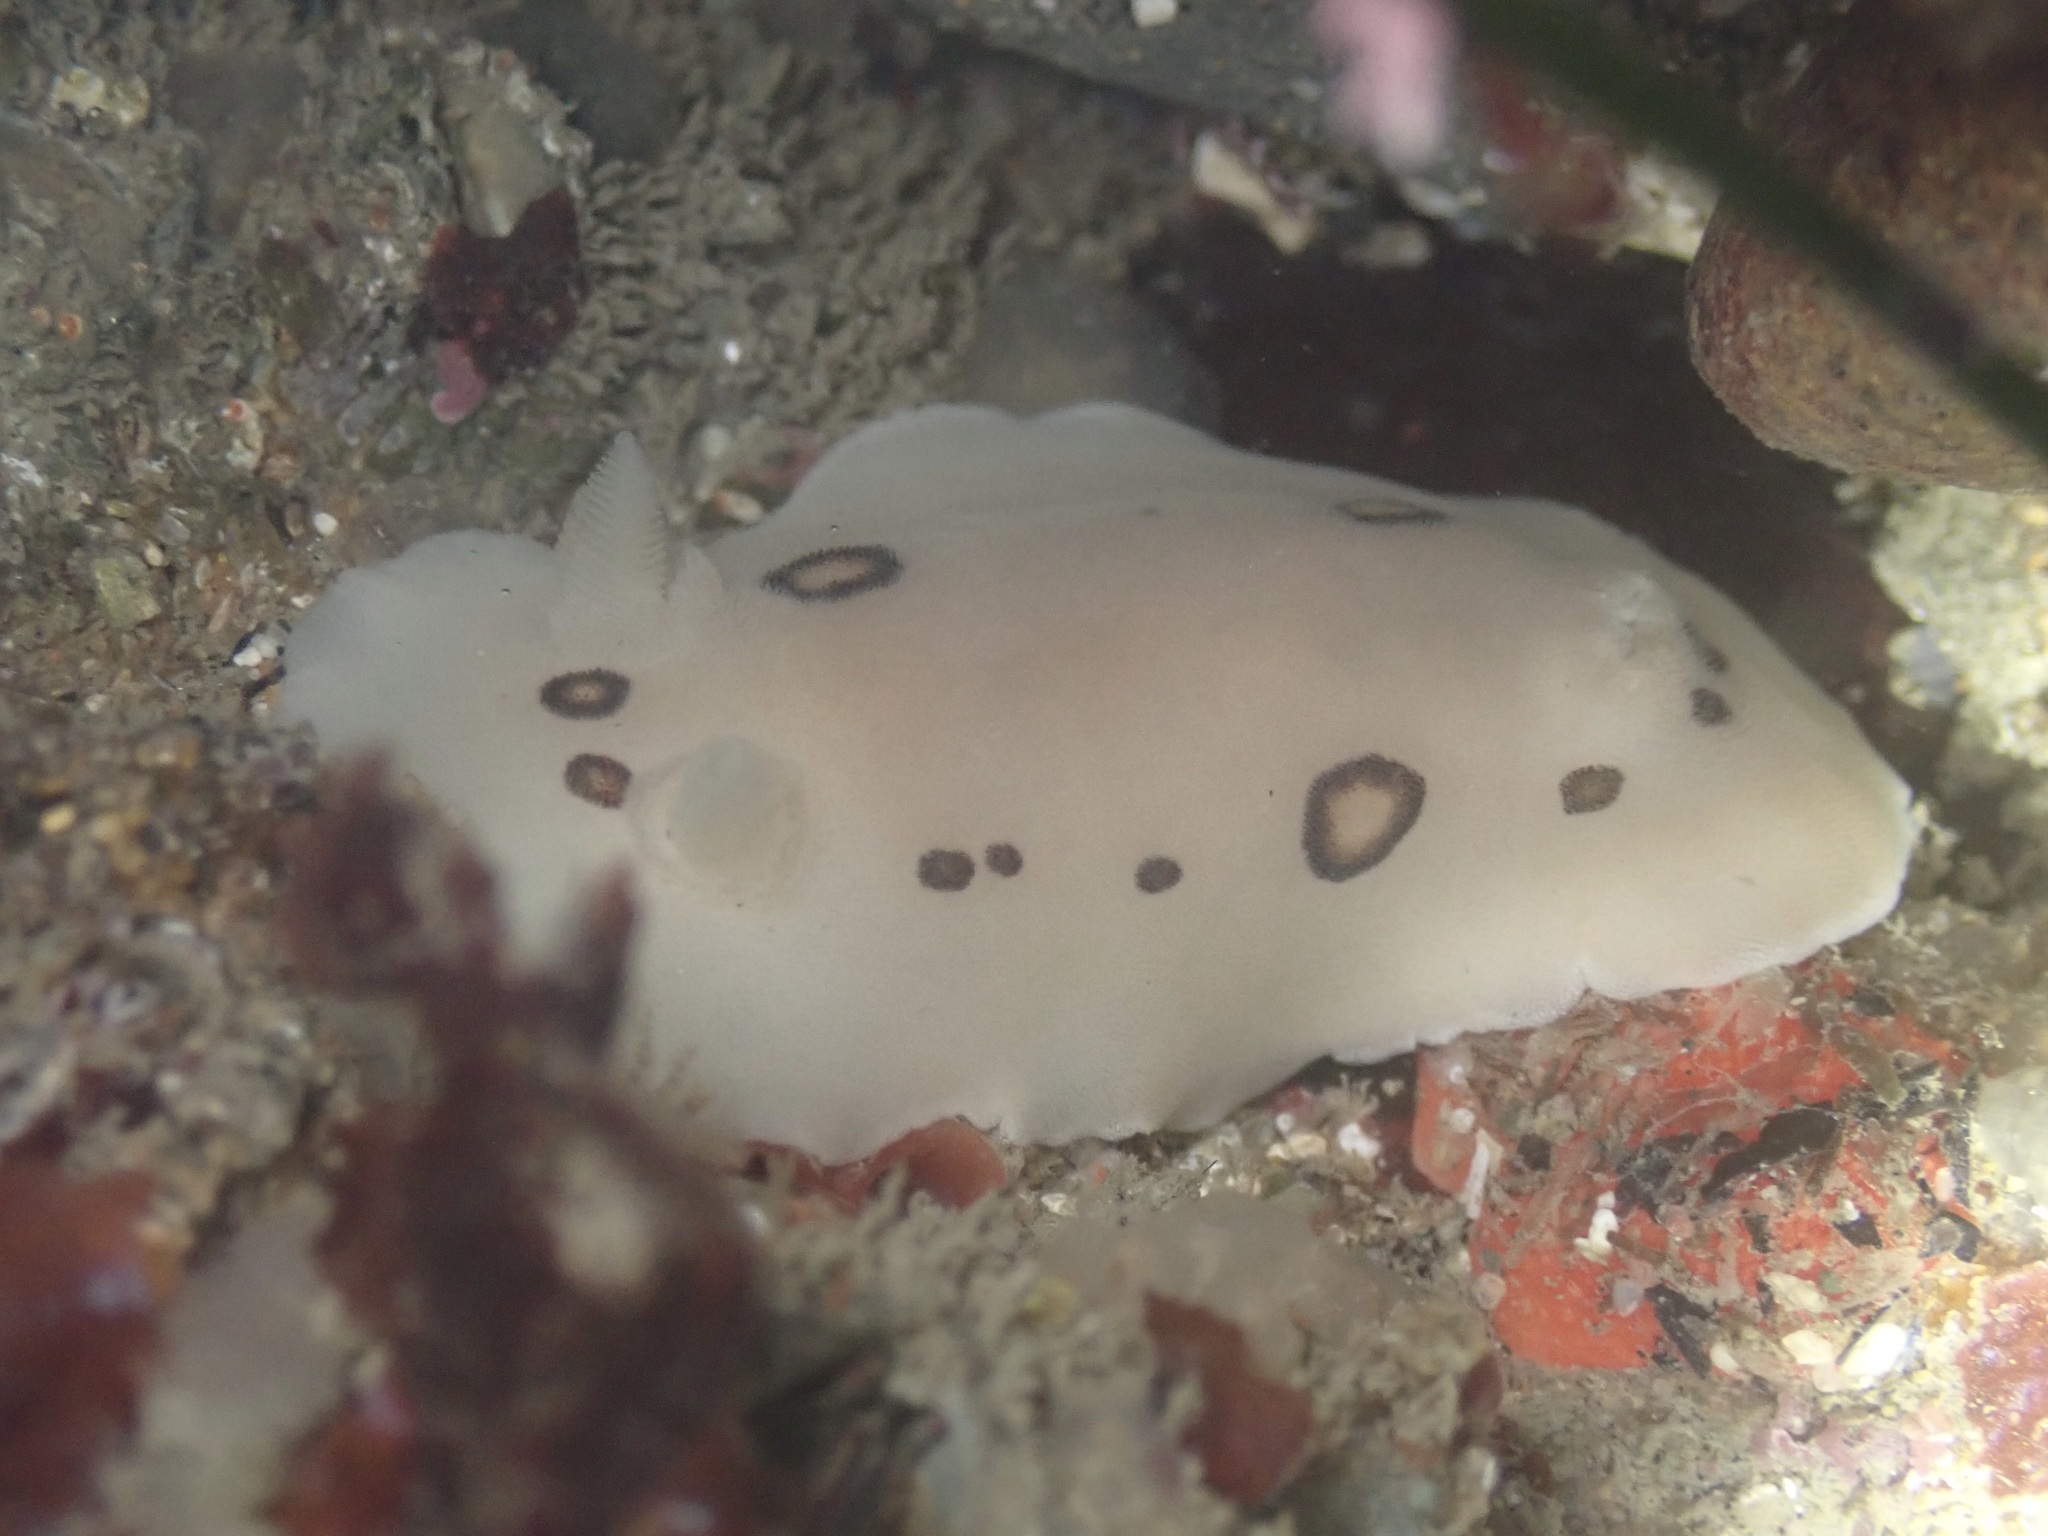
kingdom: Animalia
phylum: Mollusca
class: Gastropoda
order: Nudibranchia
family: Discodorididae
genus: Diaulula
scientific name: Diaulula sandiegensis
